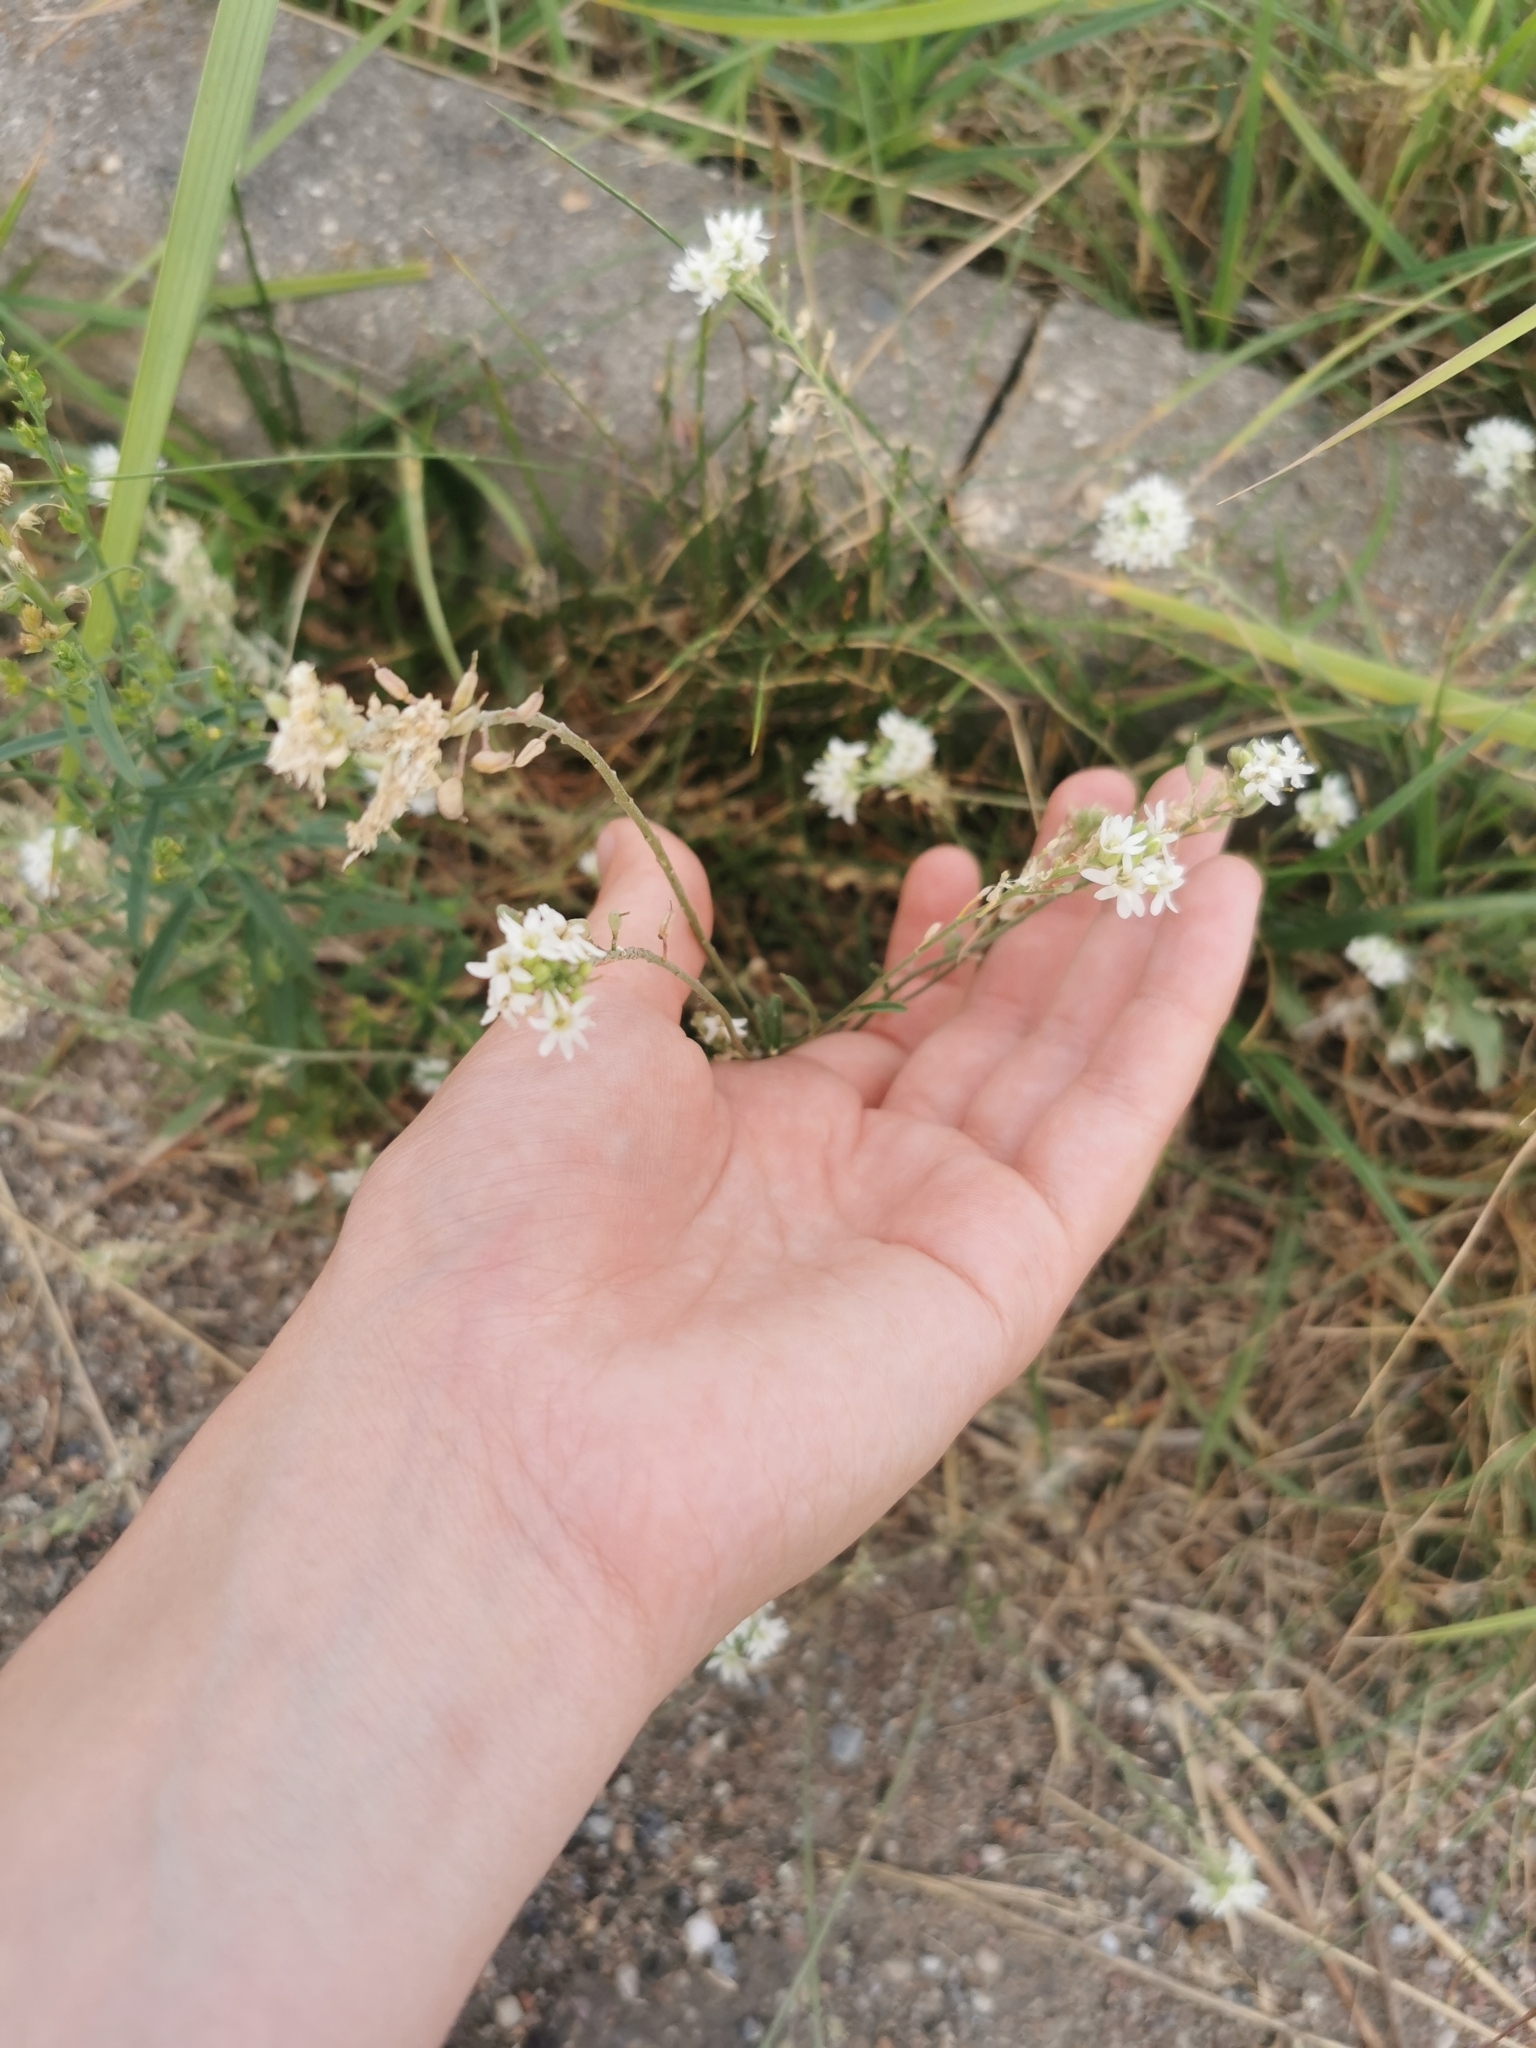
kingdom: Plantae
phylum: Tracheophyta
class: Magnoliopsida
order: Brassicales
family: Brassicaceae
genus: Berteroa
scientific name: Berteroa incana
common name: Hoary alison
